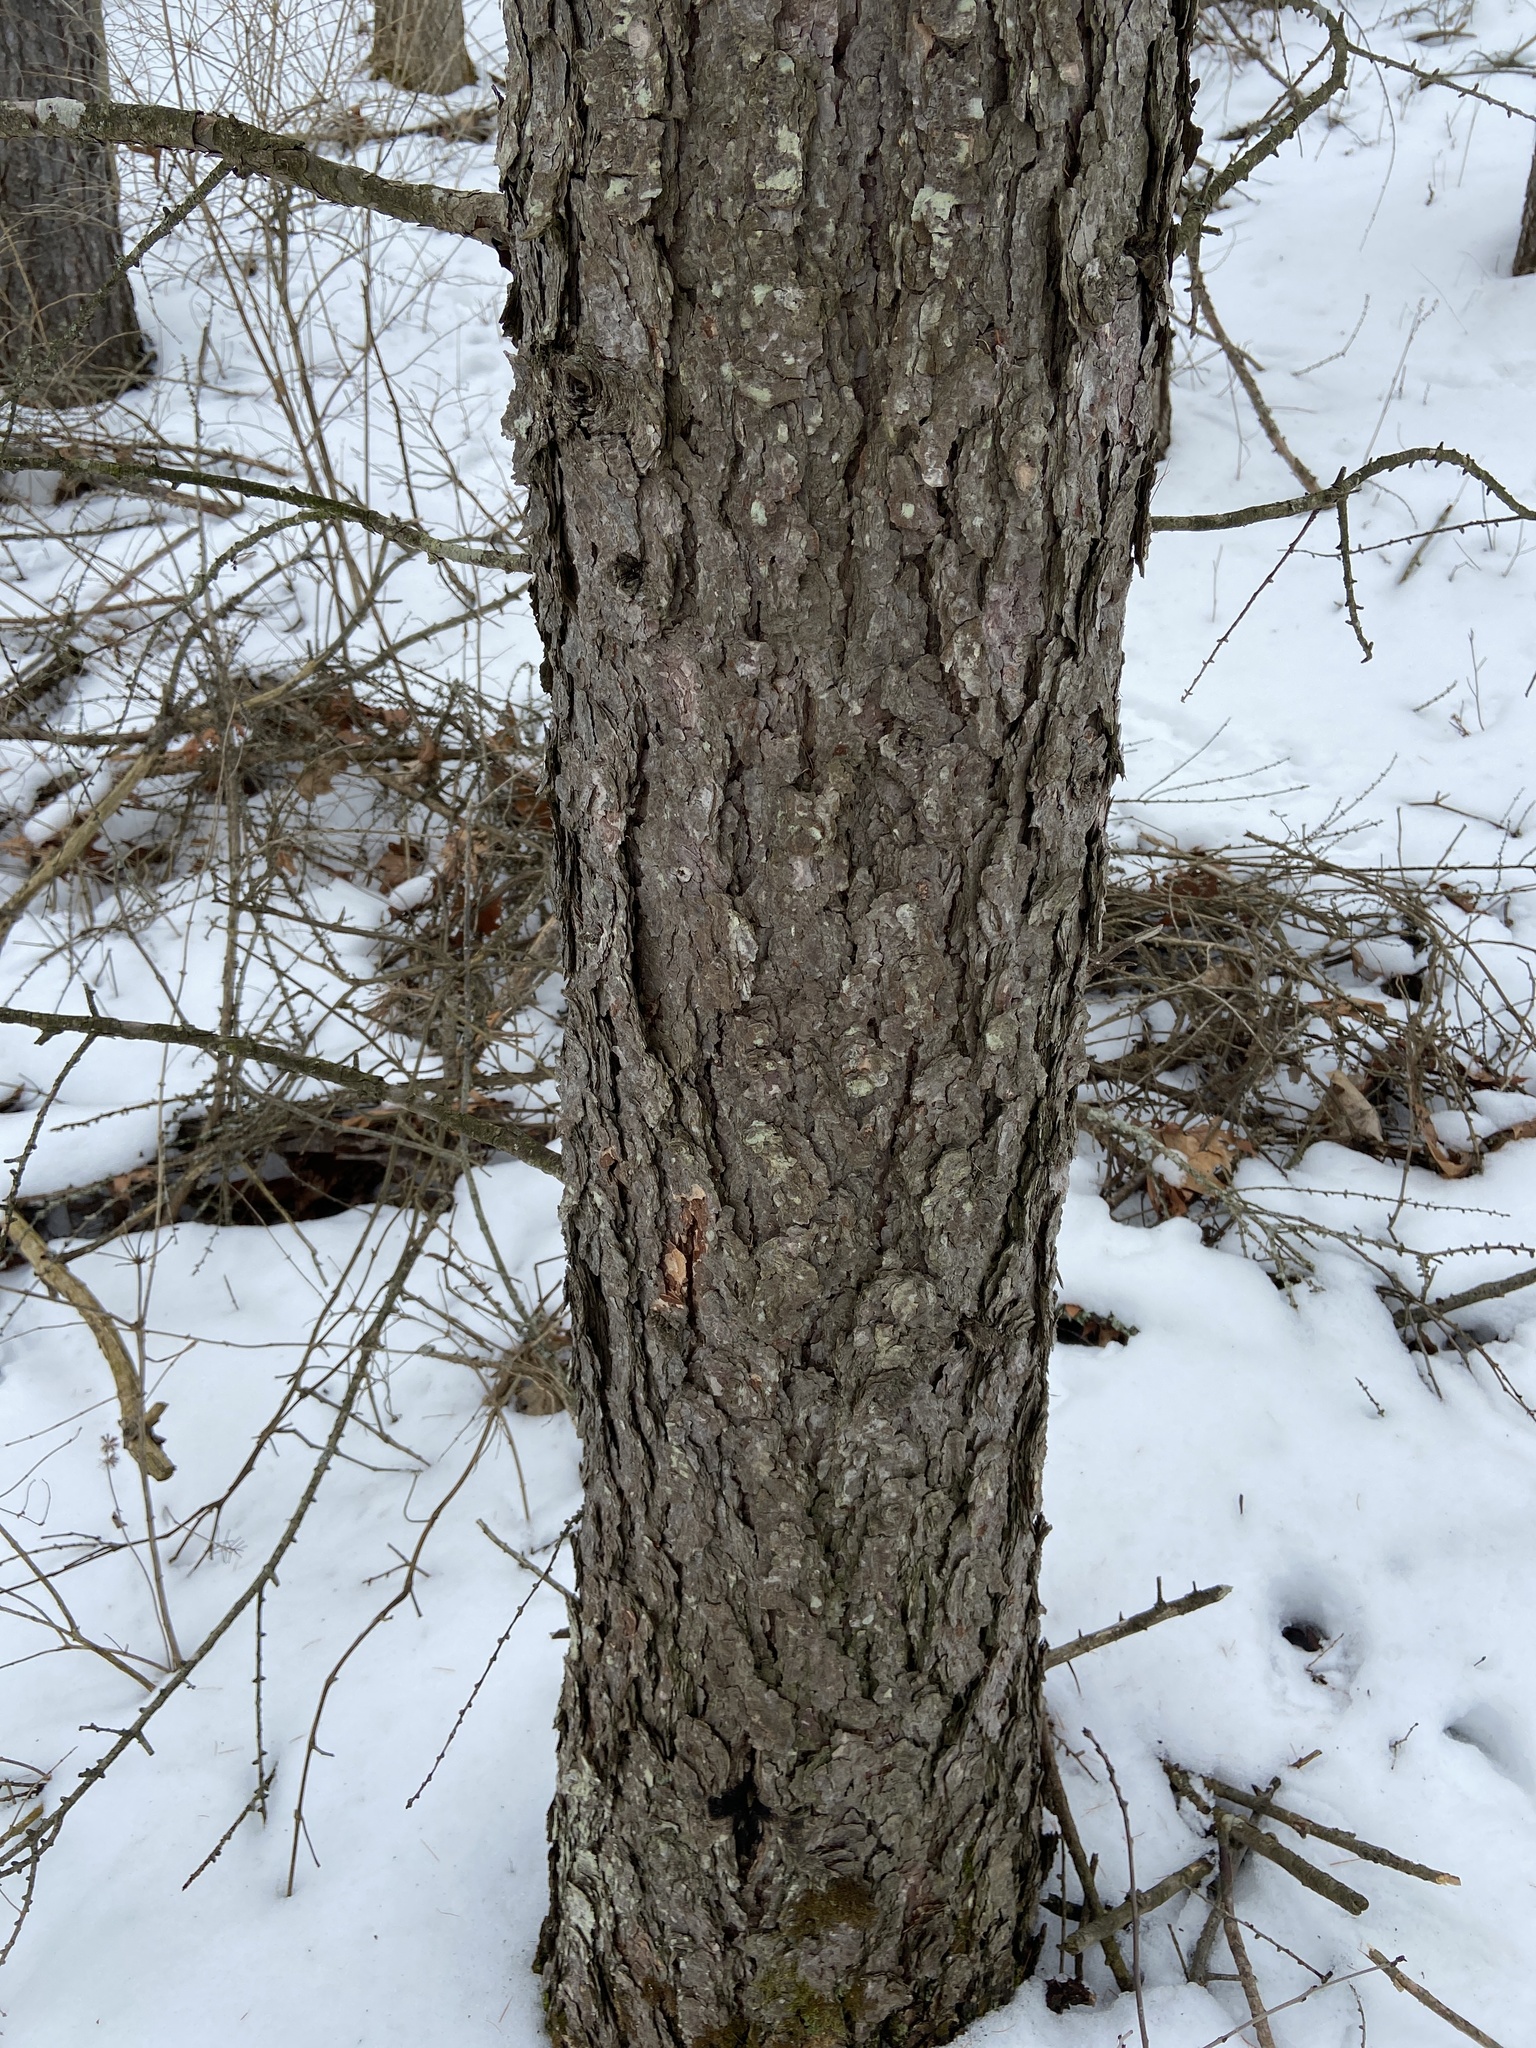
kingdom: Plantae
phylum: Tracheophyta
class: Pinopsida
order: Pinales
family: Pinaceae
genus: Larix
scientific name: Larix decidua
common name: European larch
